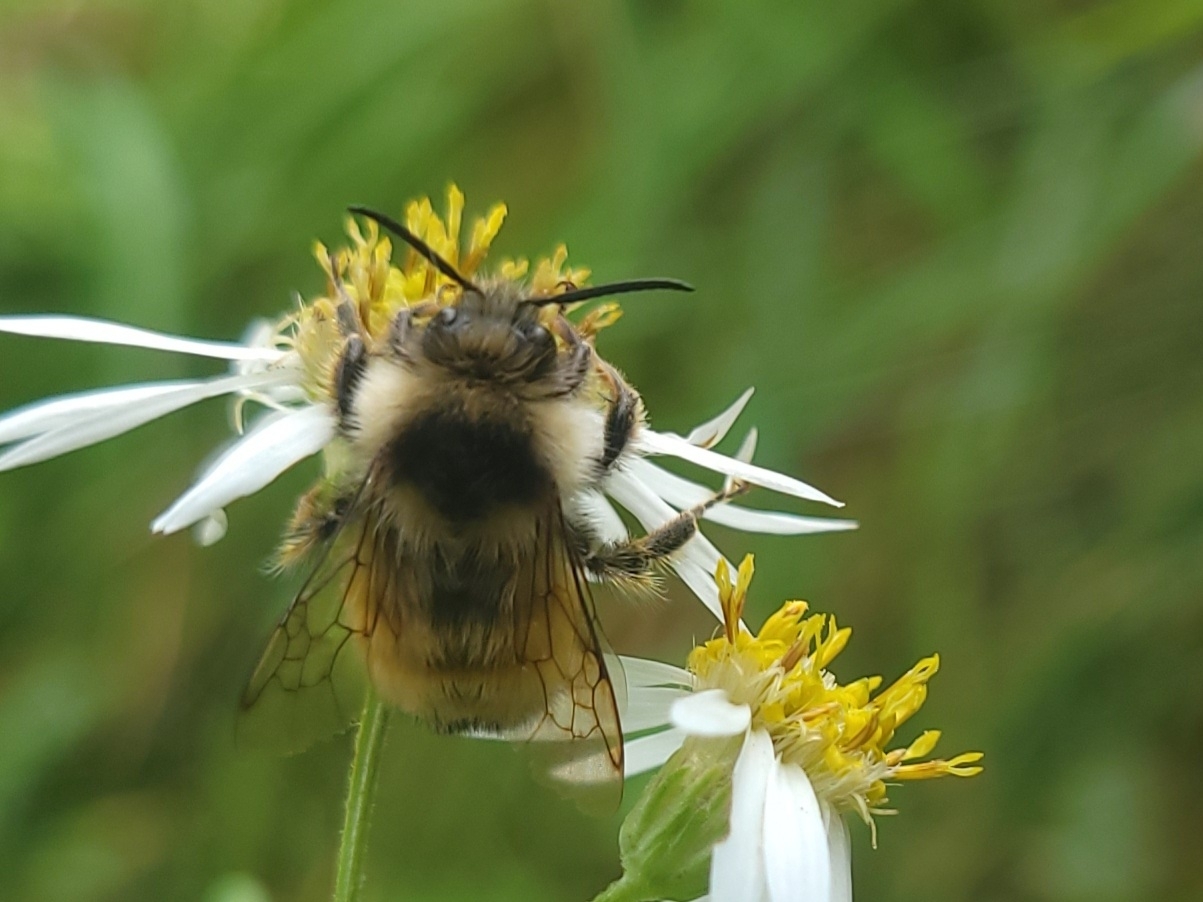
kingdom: Animalia
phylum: Arthropoda
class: Insecta
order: Hymenoptera
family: Apidae
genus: Bombus
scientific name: Bombus ternarius
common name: Tri-colored bumble bee
